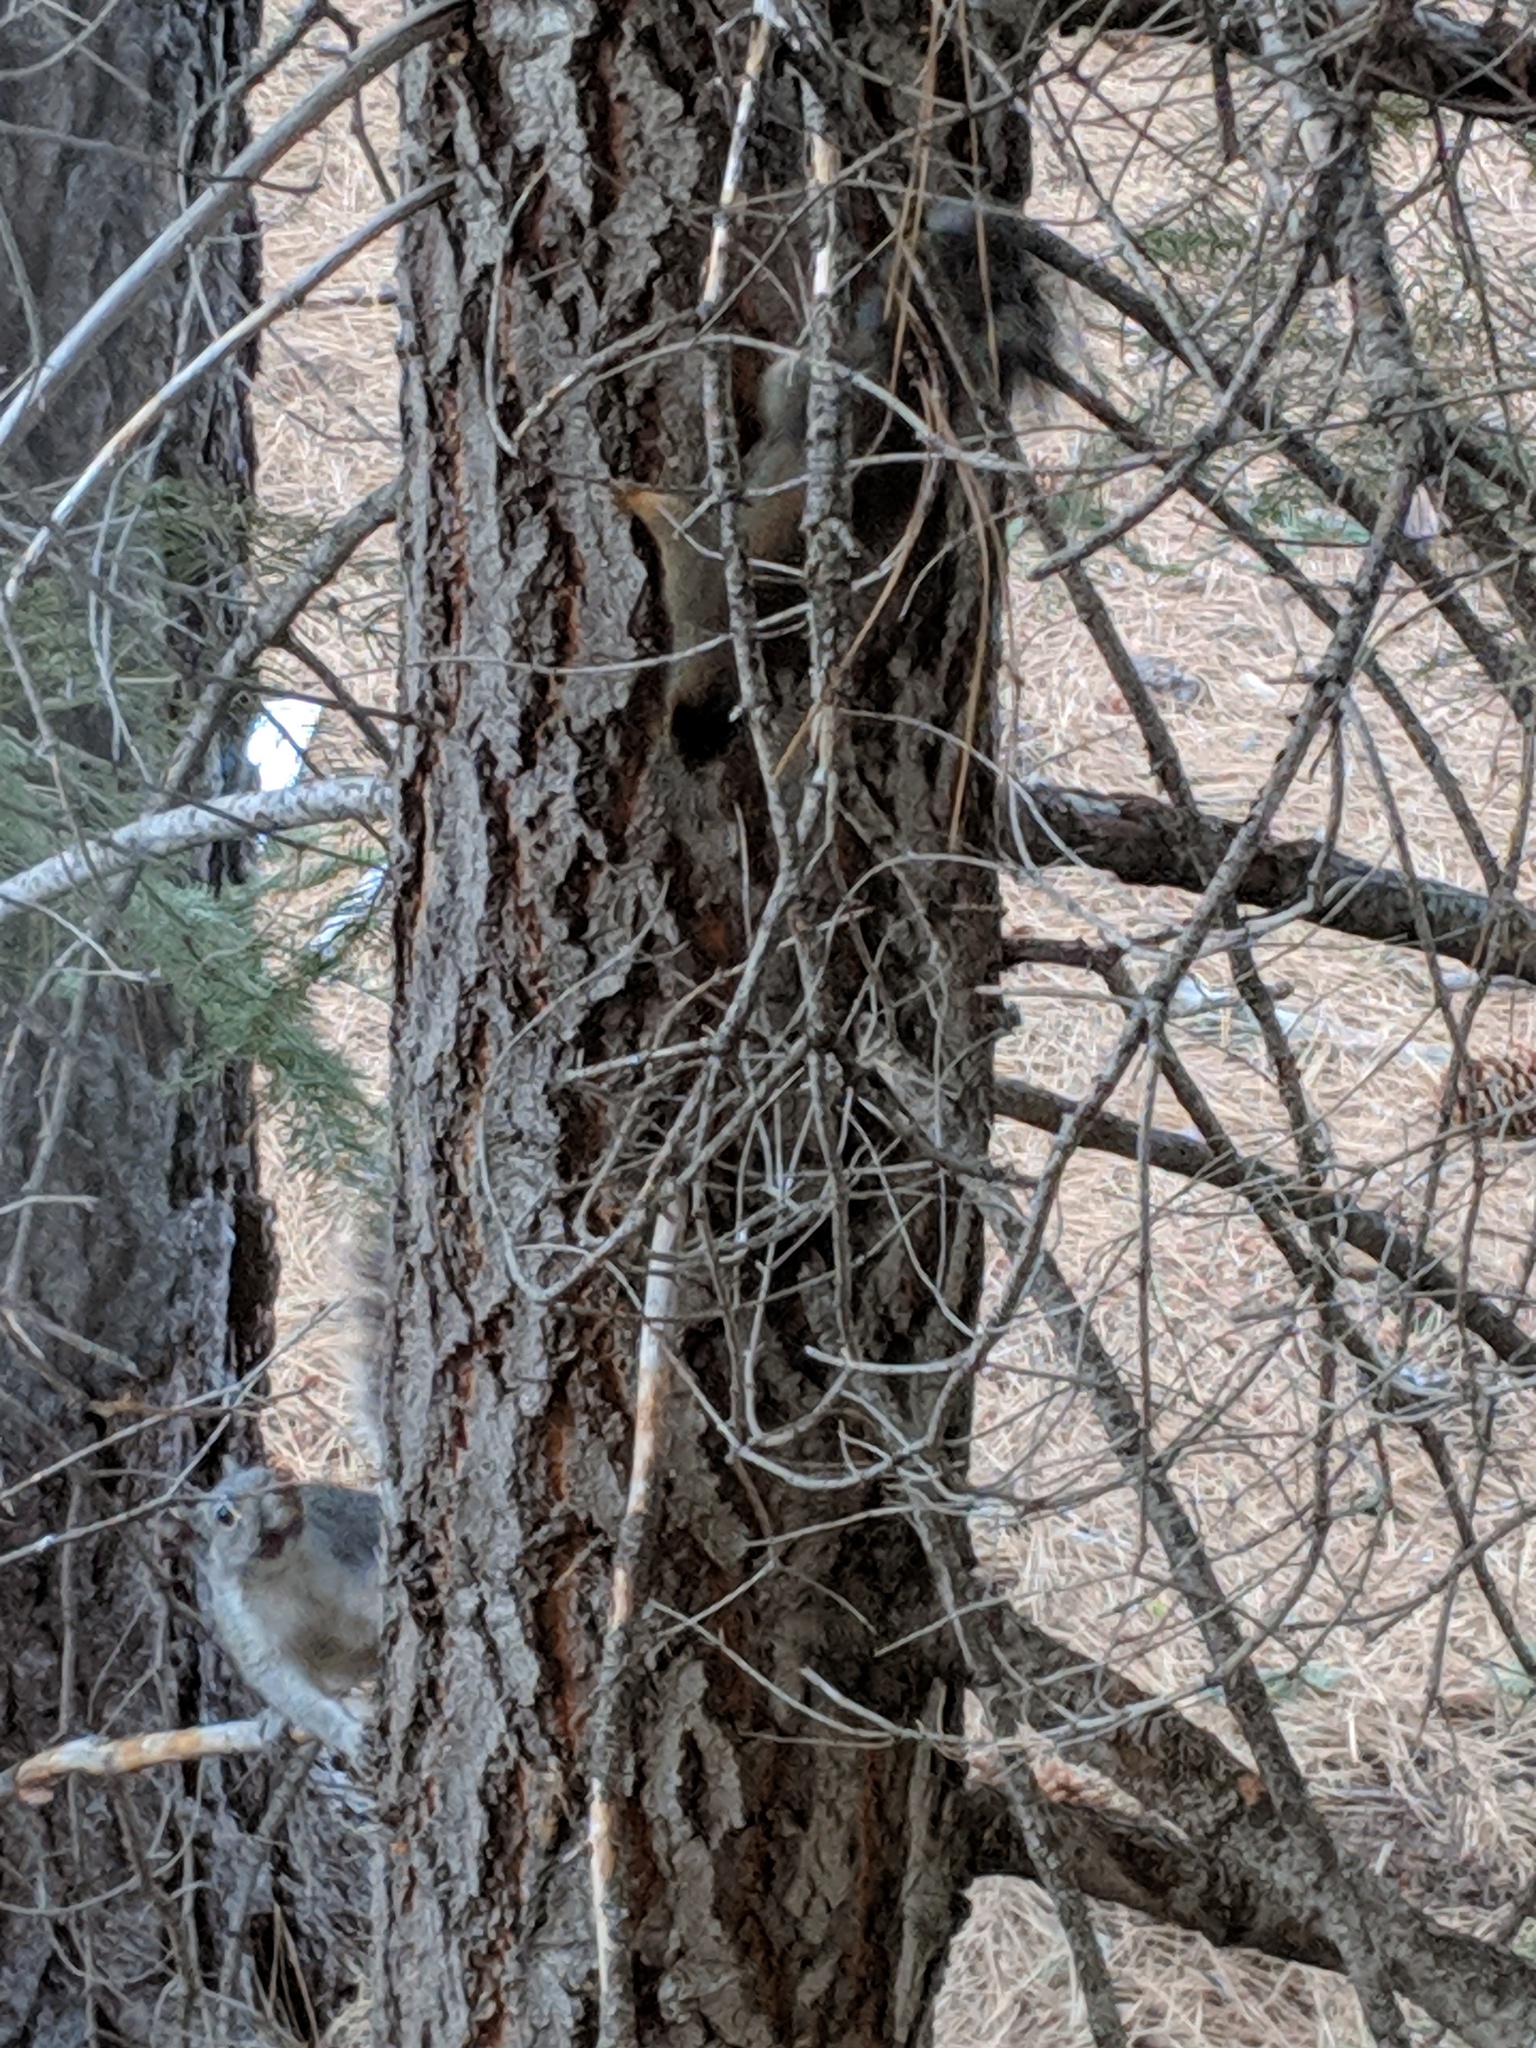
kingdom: Animalia
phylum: Chordata
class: Mammalia
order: Rodentia
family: Sciuridae
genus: Tamiasciurus
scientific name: Tamiasciurus douglasii
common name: Douglas's squirrel
